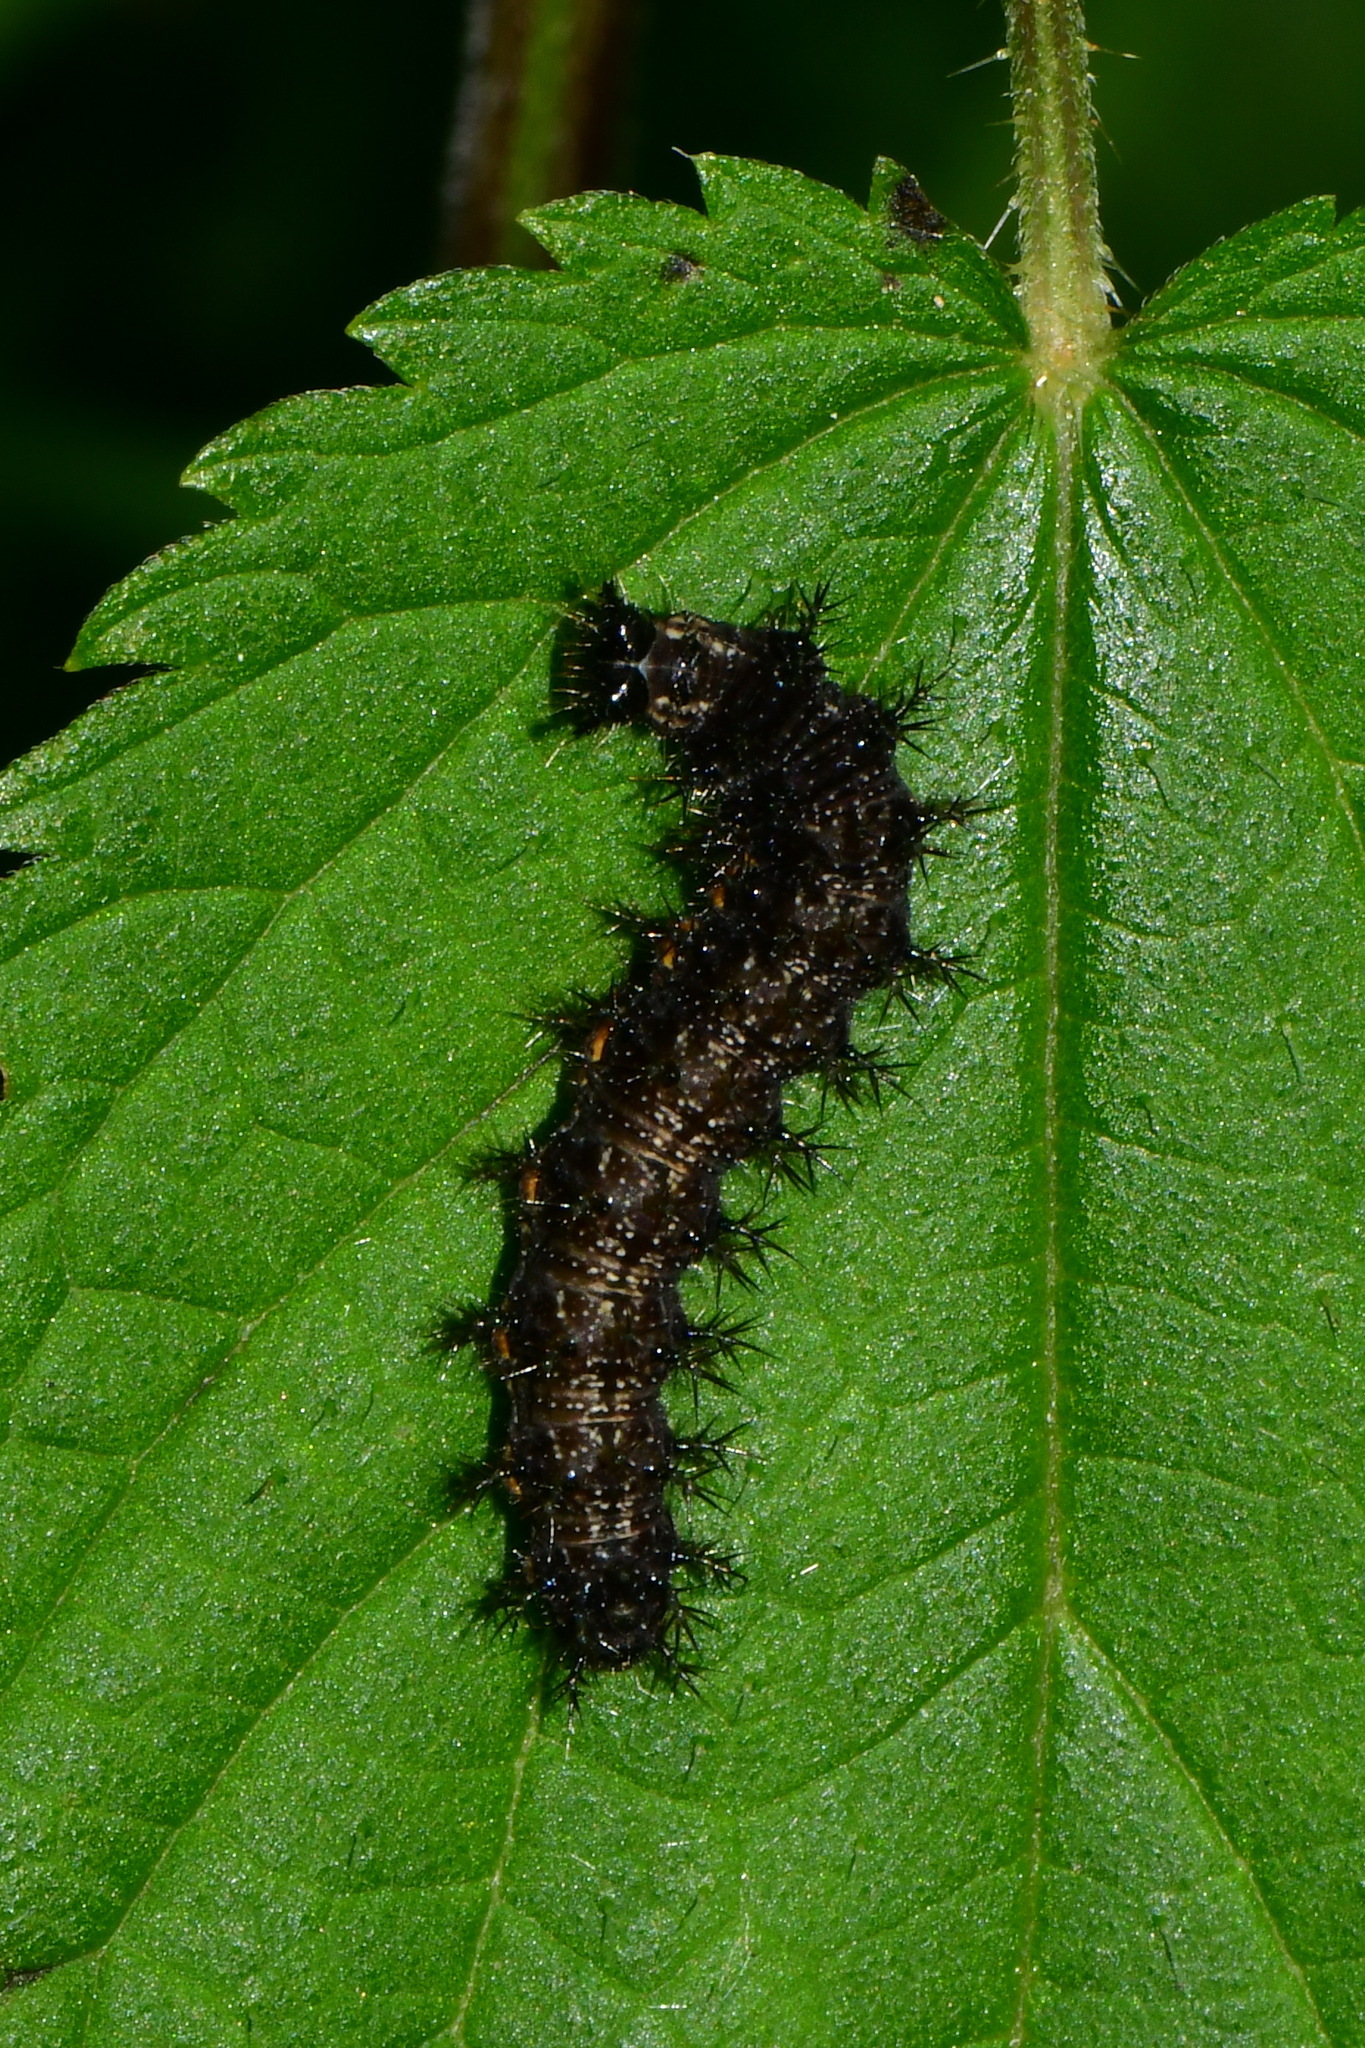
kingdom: Animalia
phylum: Arthropoda
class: Insecta
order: Lepidoptera
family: Nymphalidae
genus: Araschnia
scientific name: Araschnia levana
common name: Map butterfly
